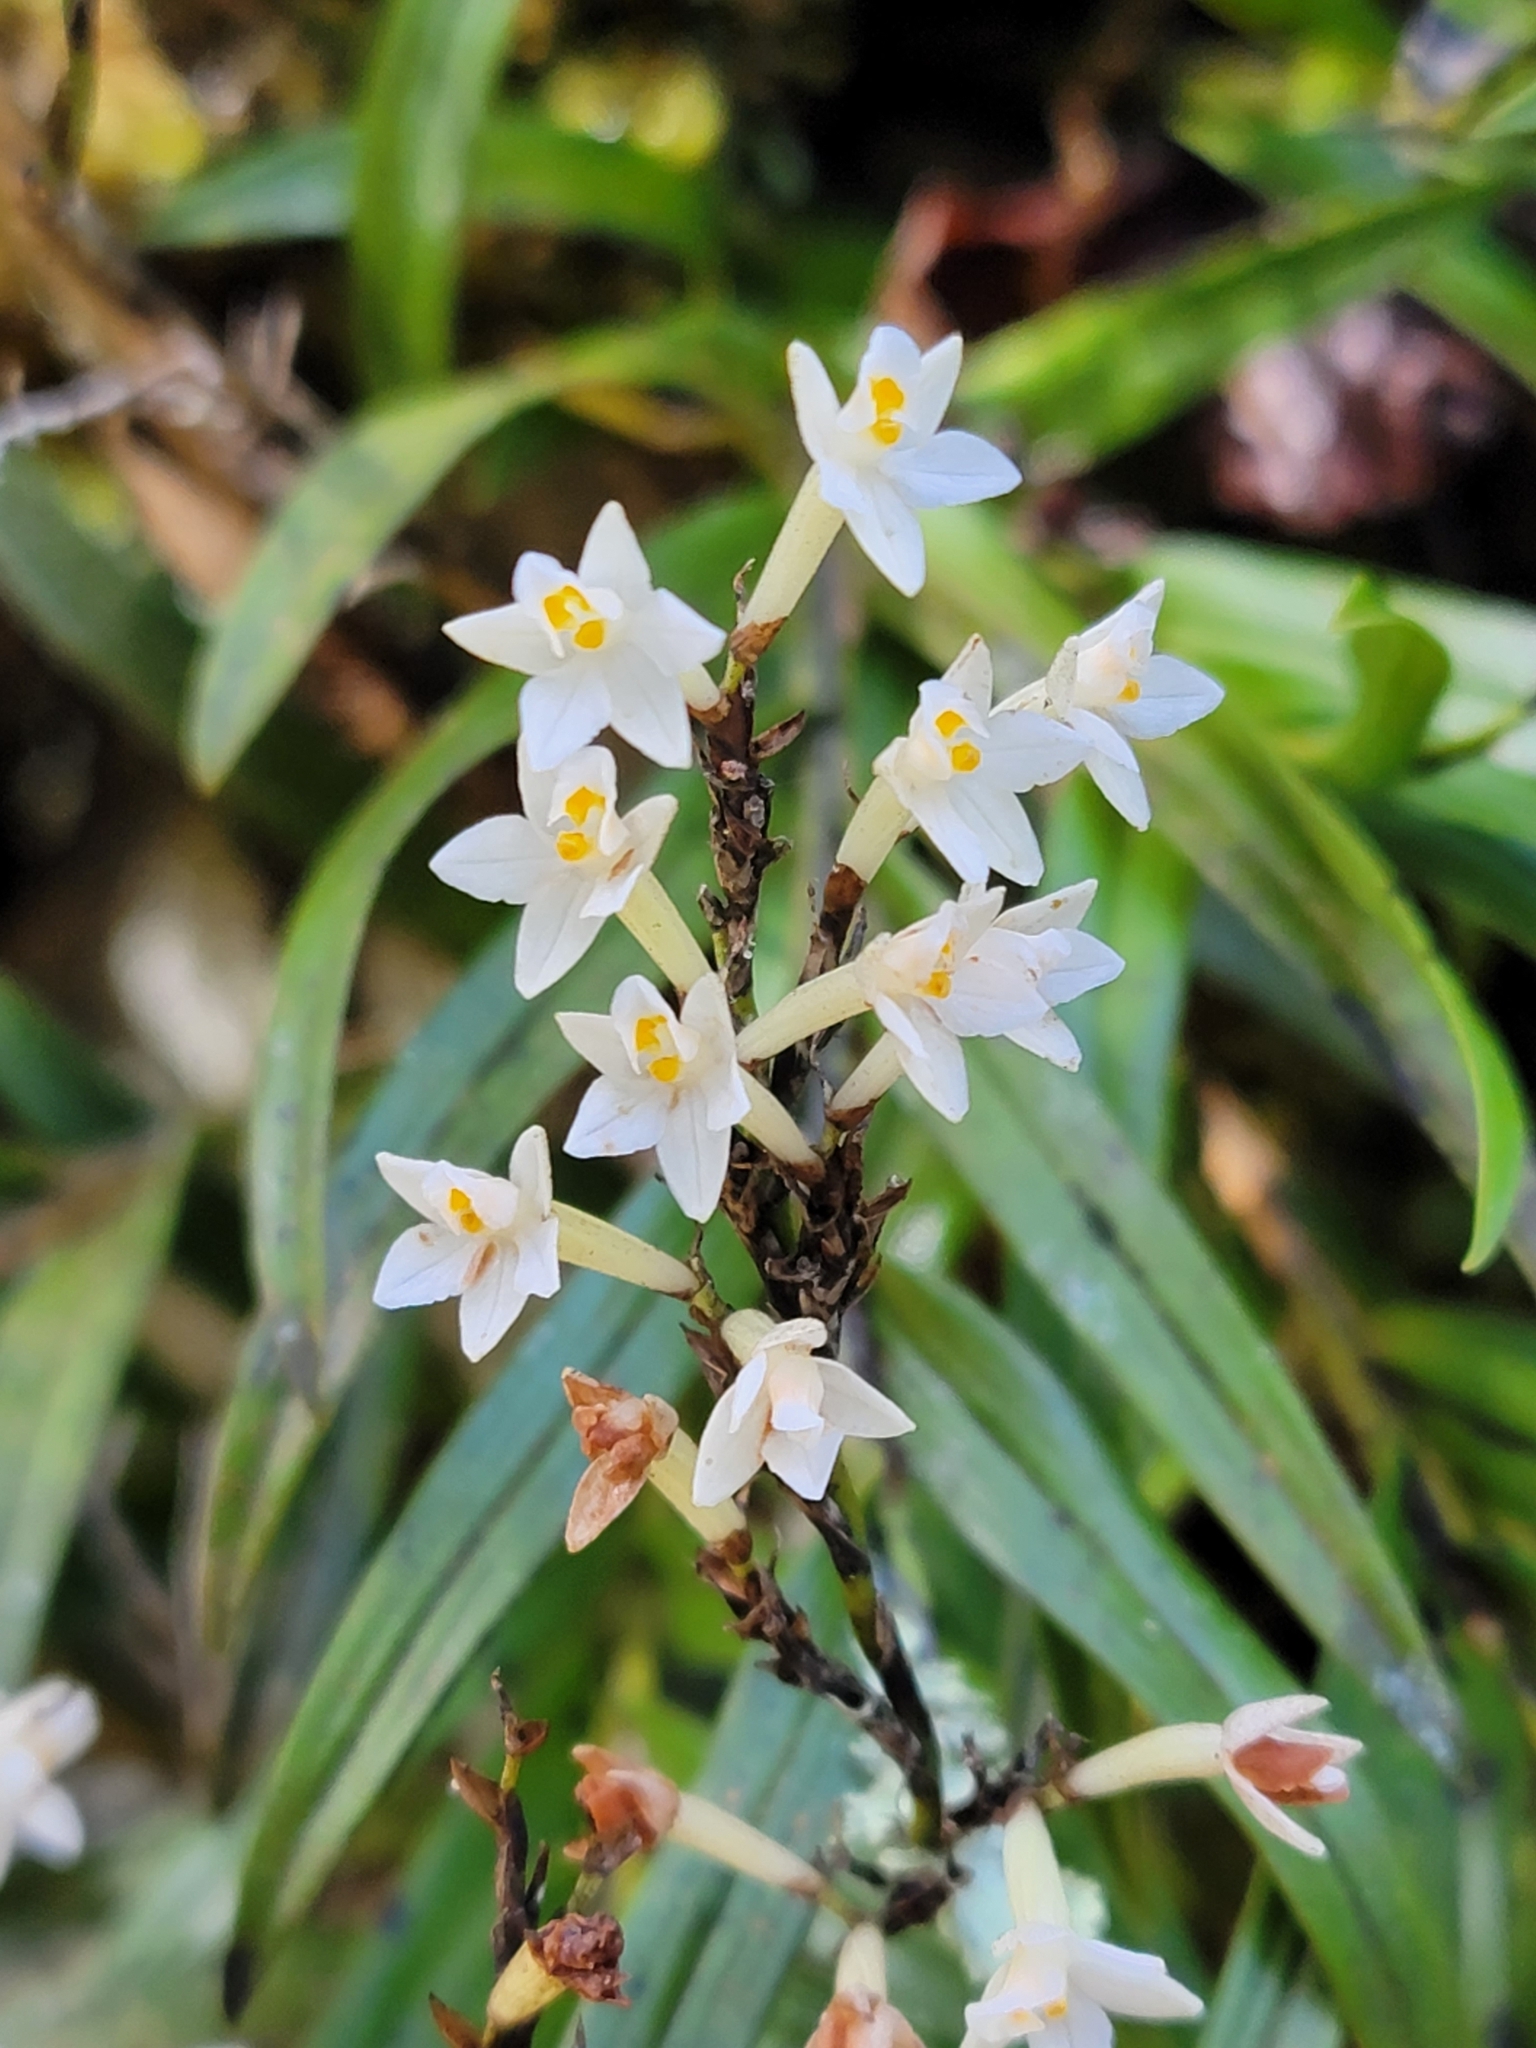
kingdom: Plantae
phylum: Tracheophyta
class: Liliopsida
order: Asparagales
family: Orchidaceae
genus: Earina
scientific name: Earina autumnalis
